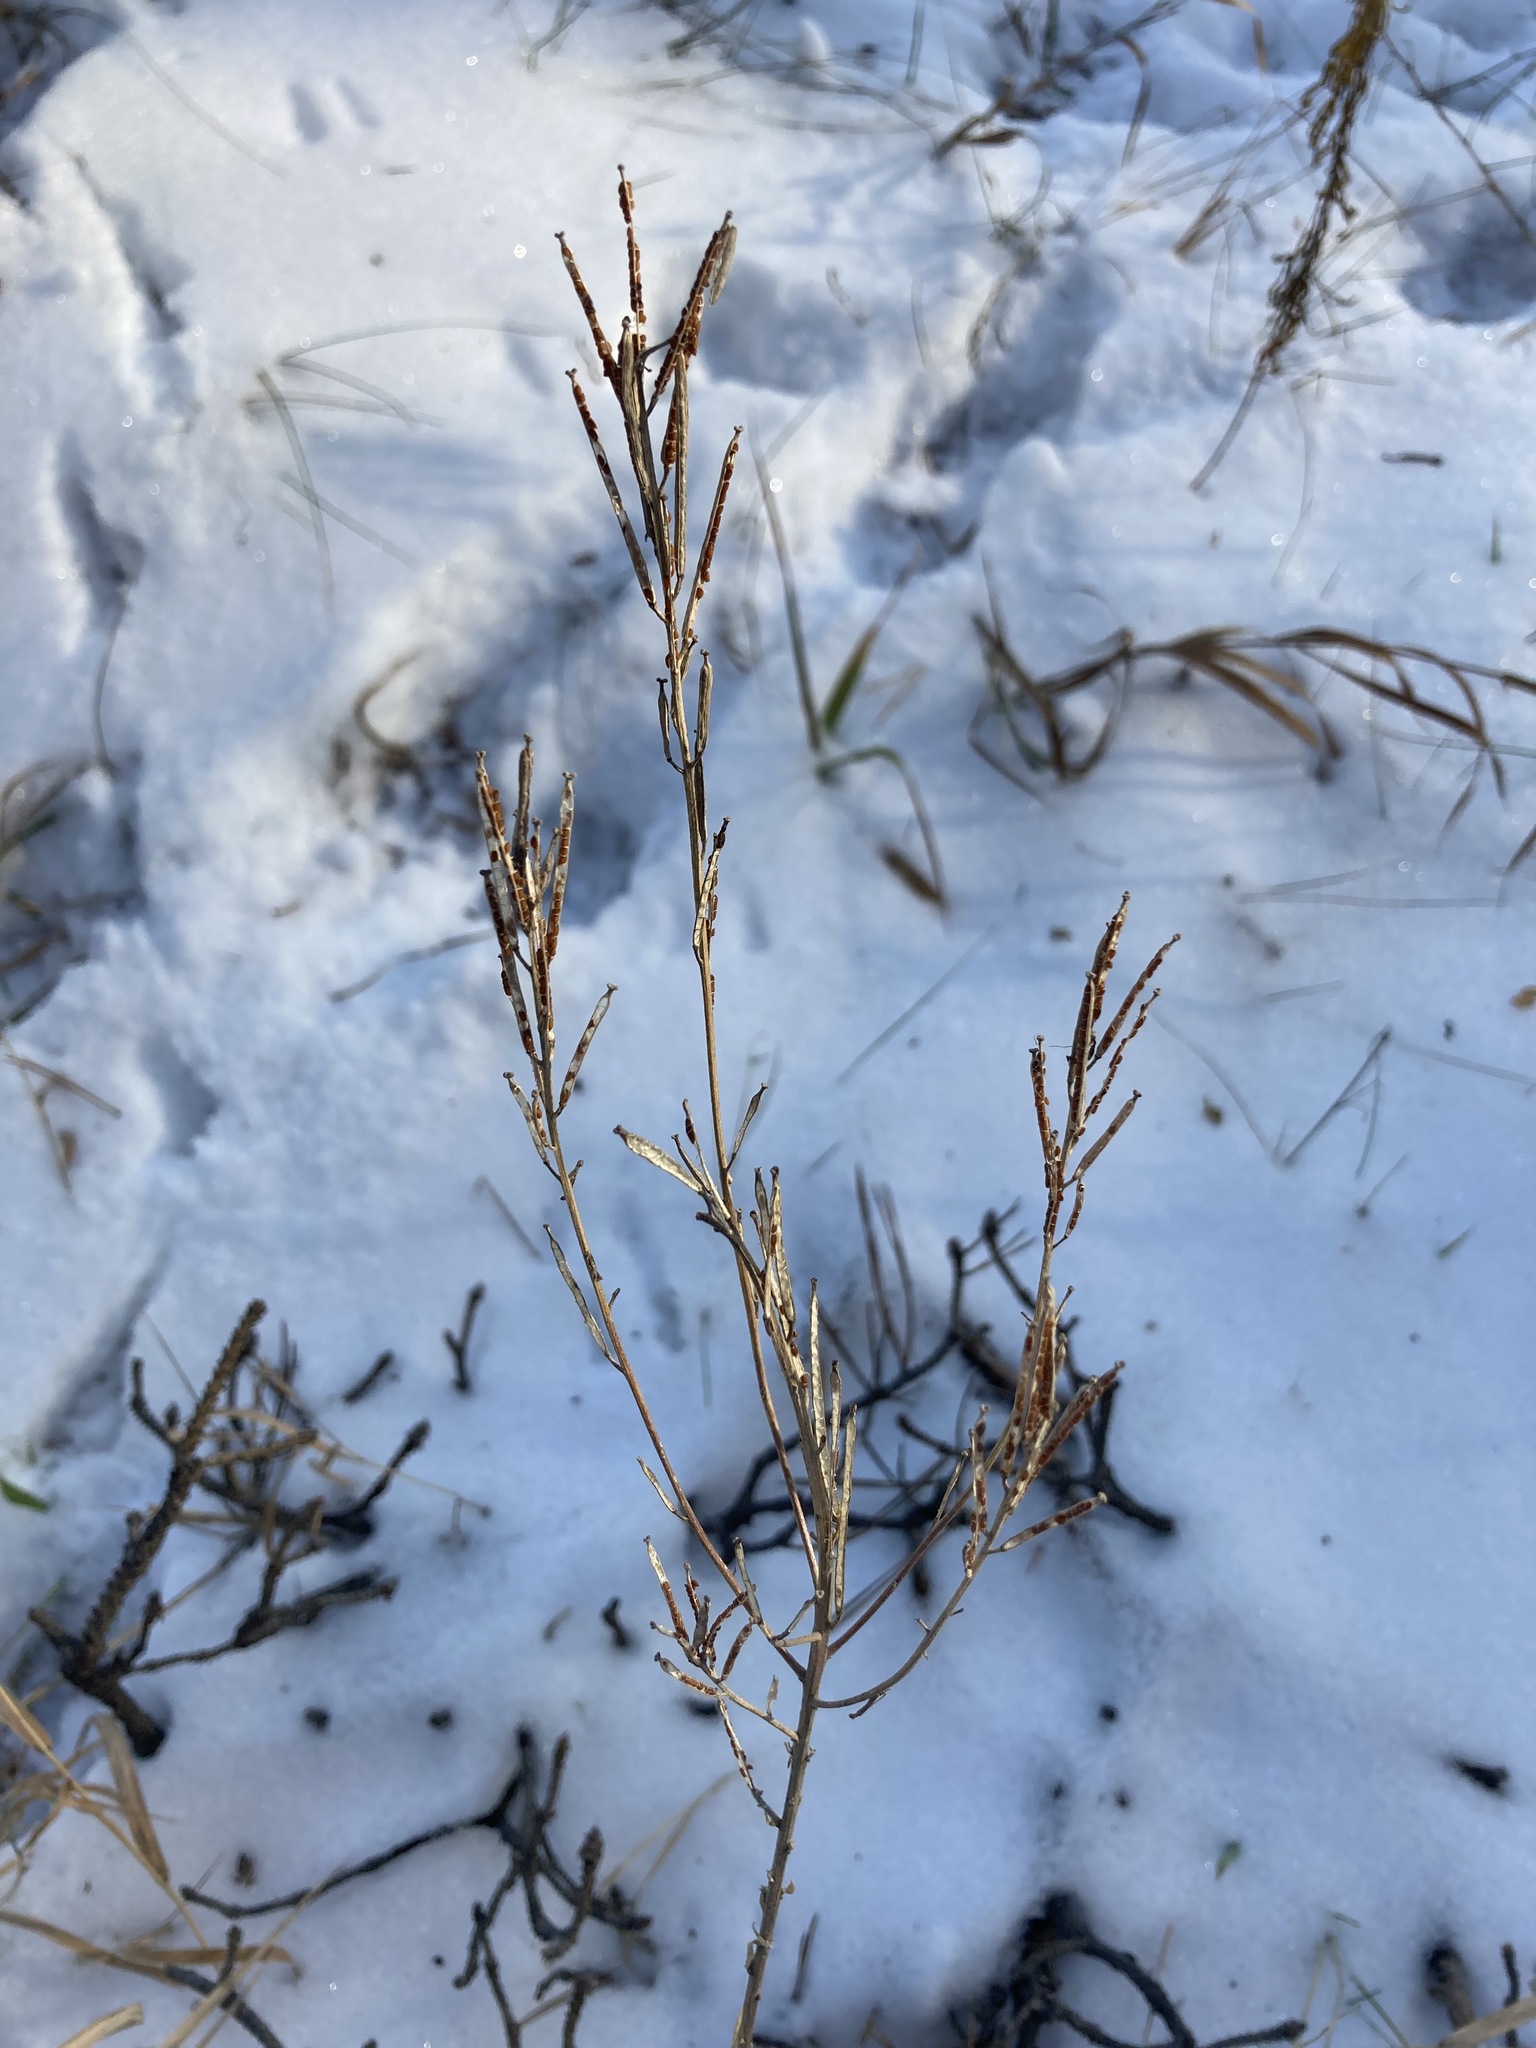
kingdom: Plantae
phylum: Tracheophyta
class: Magnoliopsida
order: Brassicales
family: Brassicaceae
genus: Erysimum
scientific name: Erysimum hieraciifolium
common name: European wallflower
